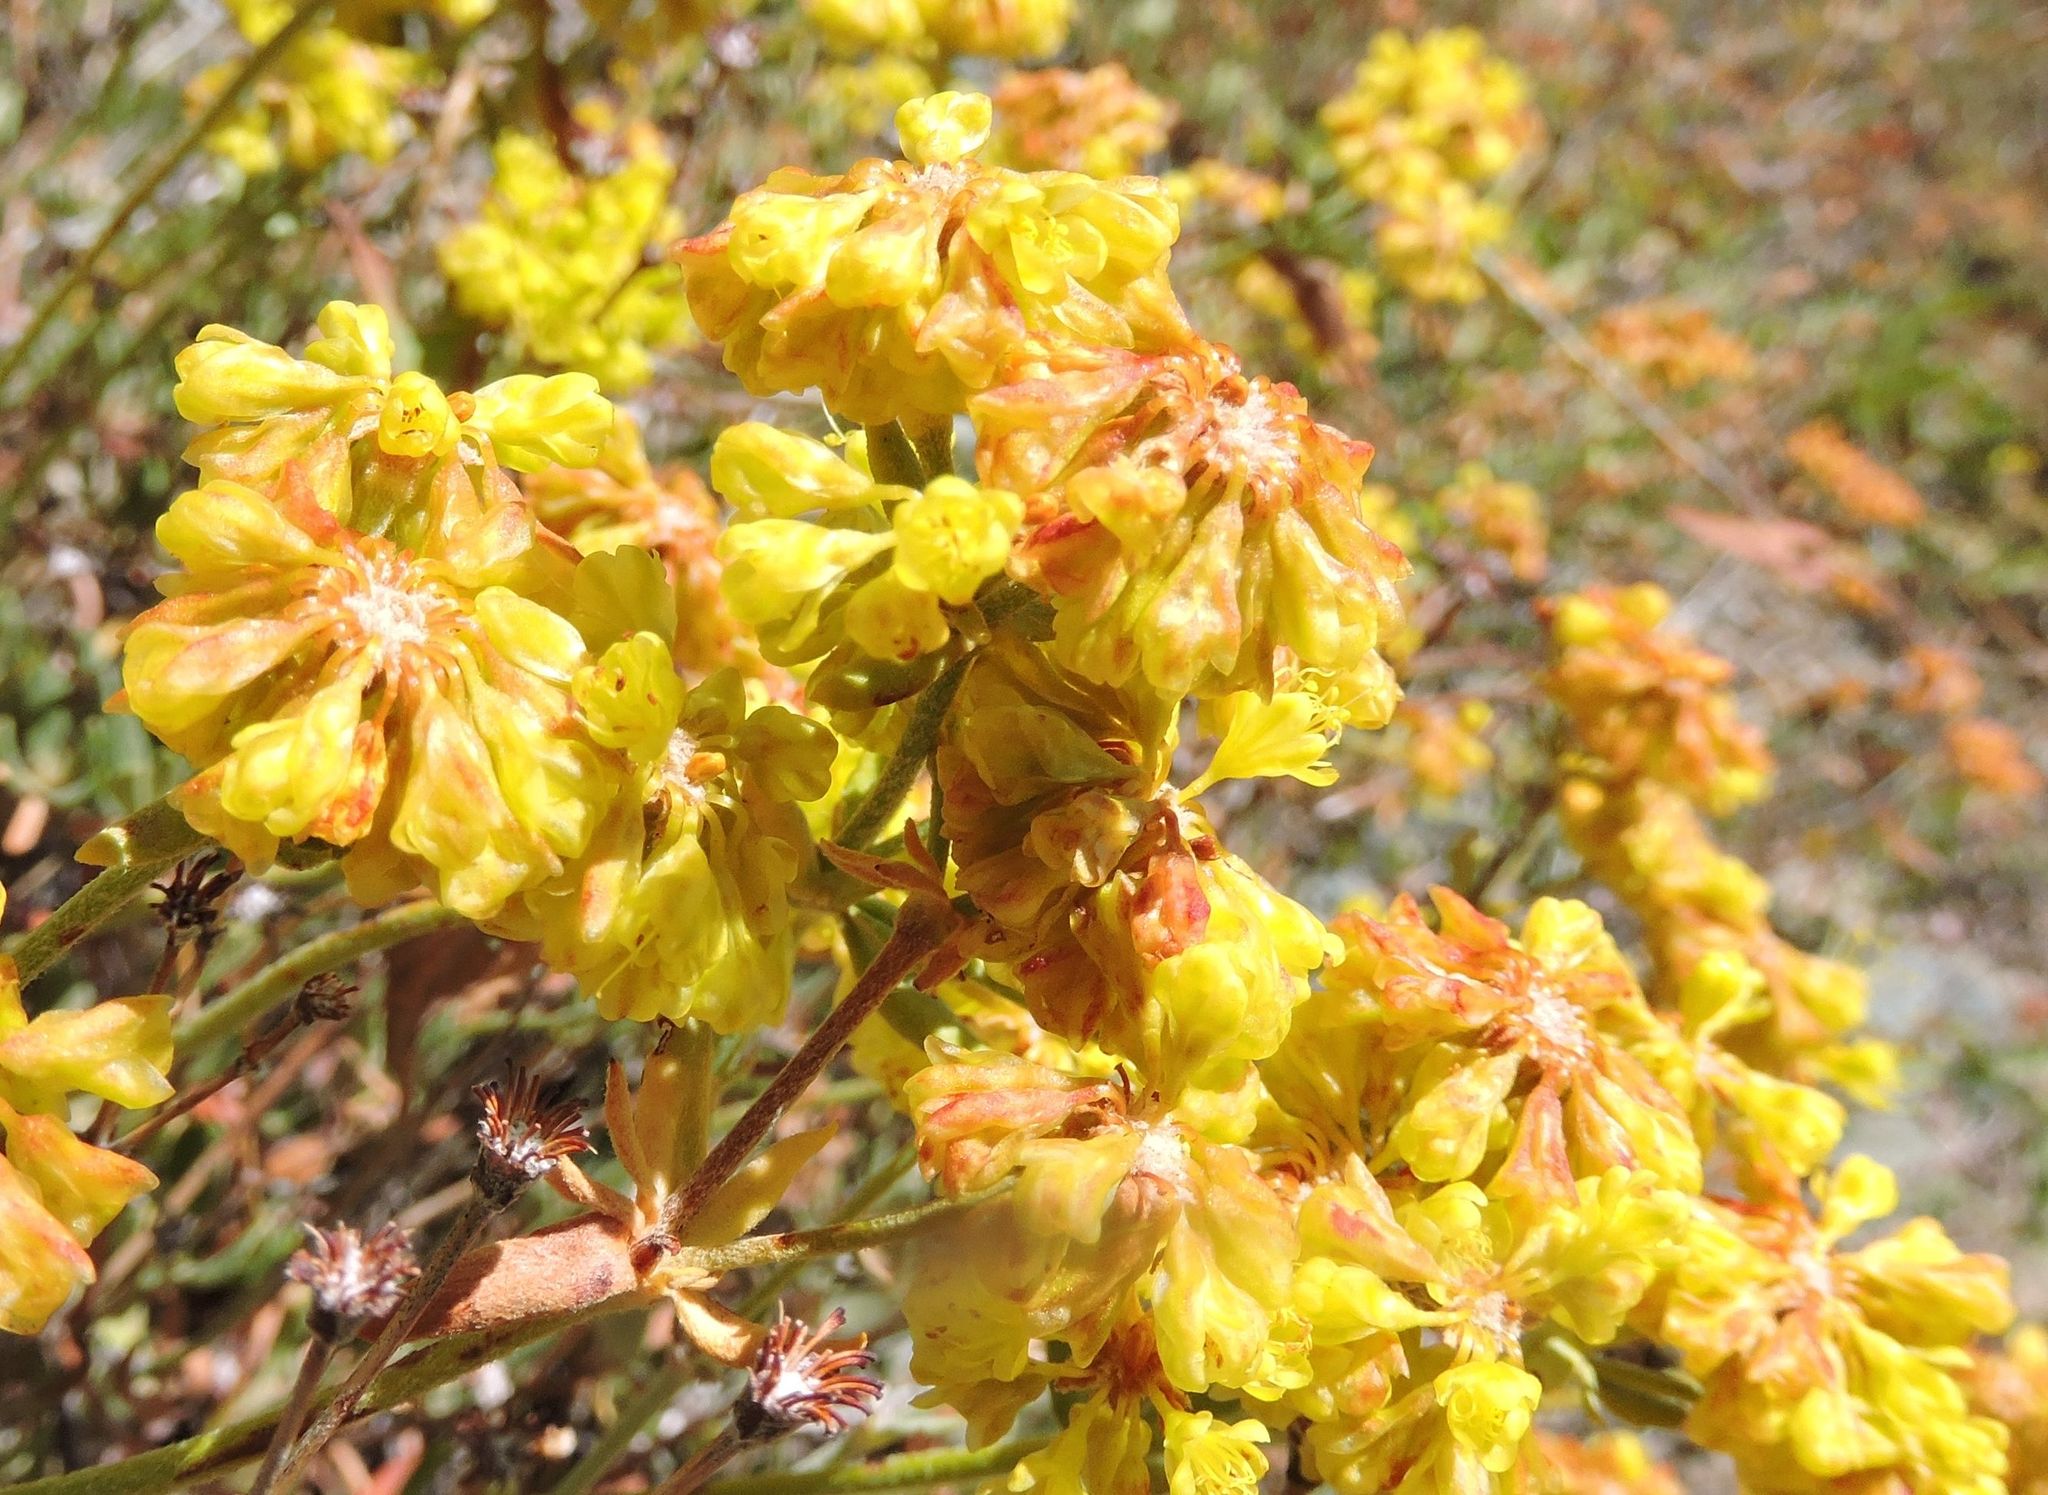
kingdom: Plantae
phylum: Tracheophyta
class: Magnoliopsida
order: Caryophyllales
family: Polygonaceae
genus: Eriogonum
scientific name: Eriogonum umbellatum
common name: Sulfur-buckwheat
